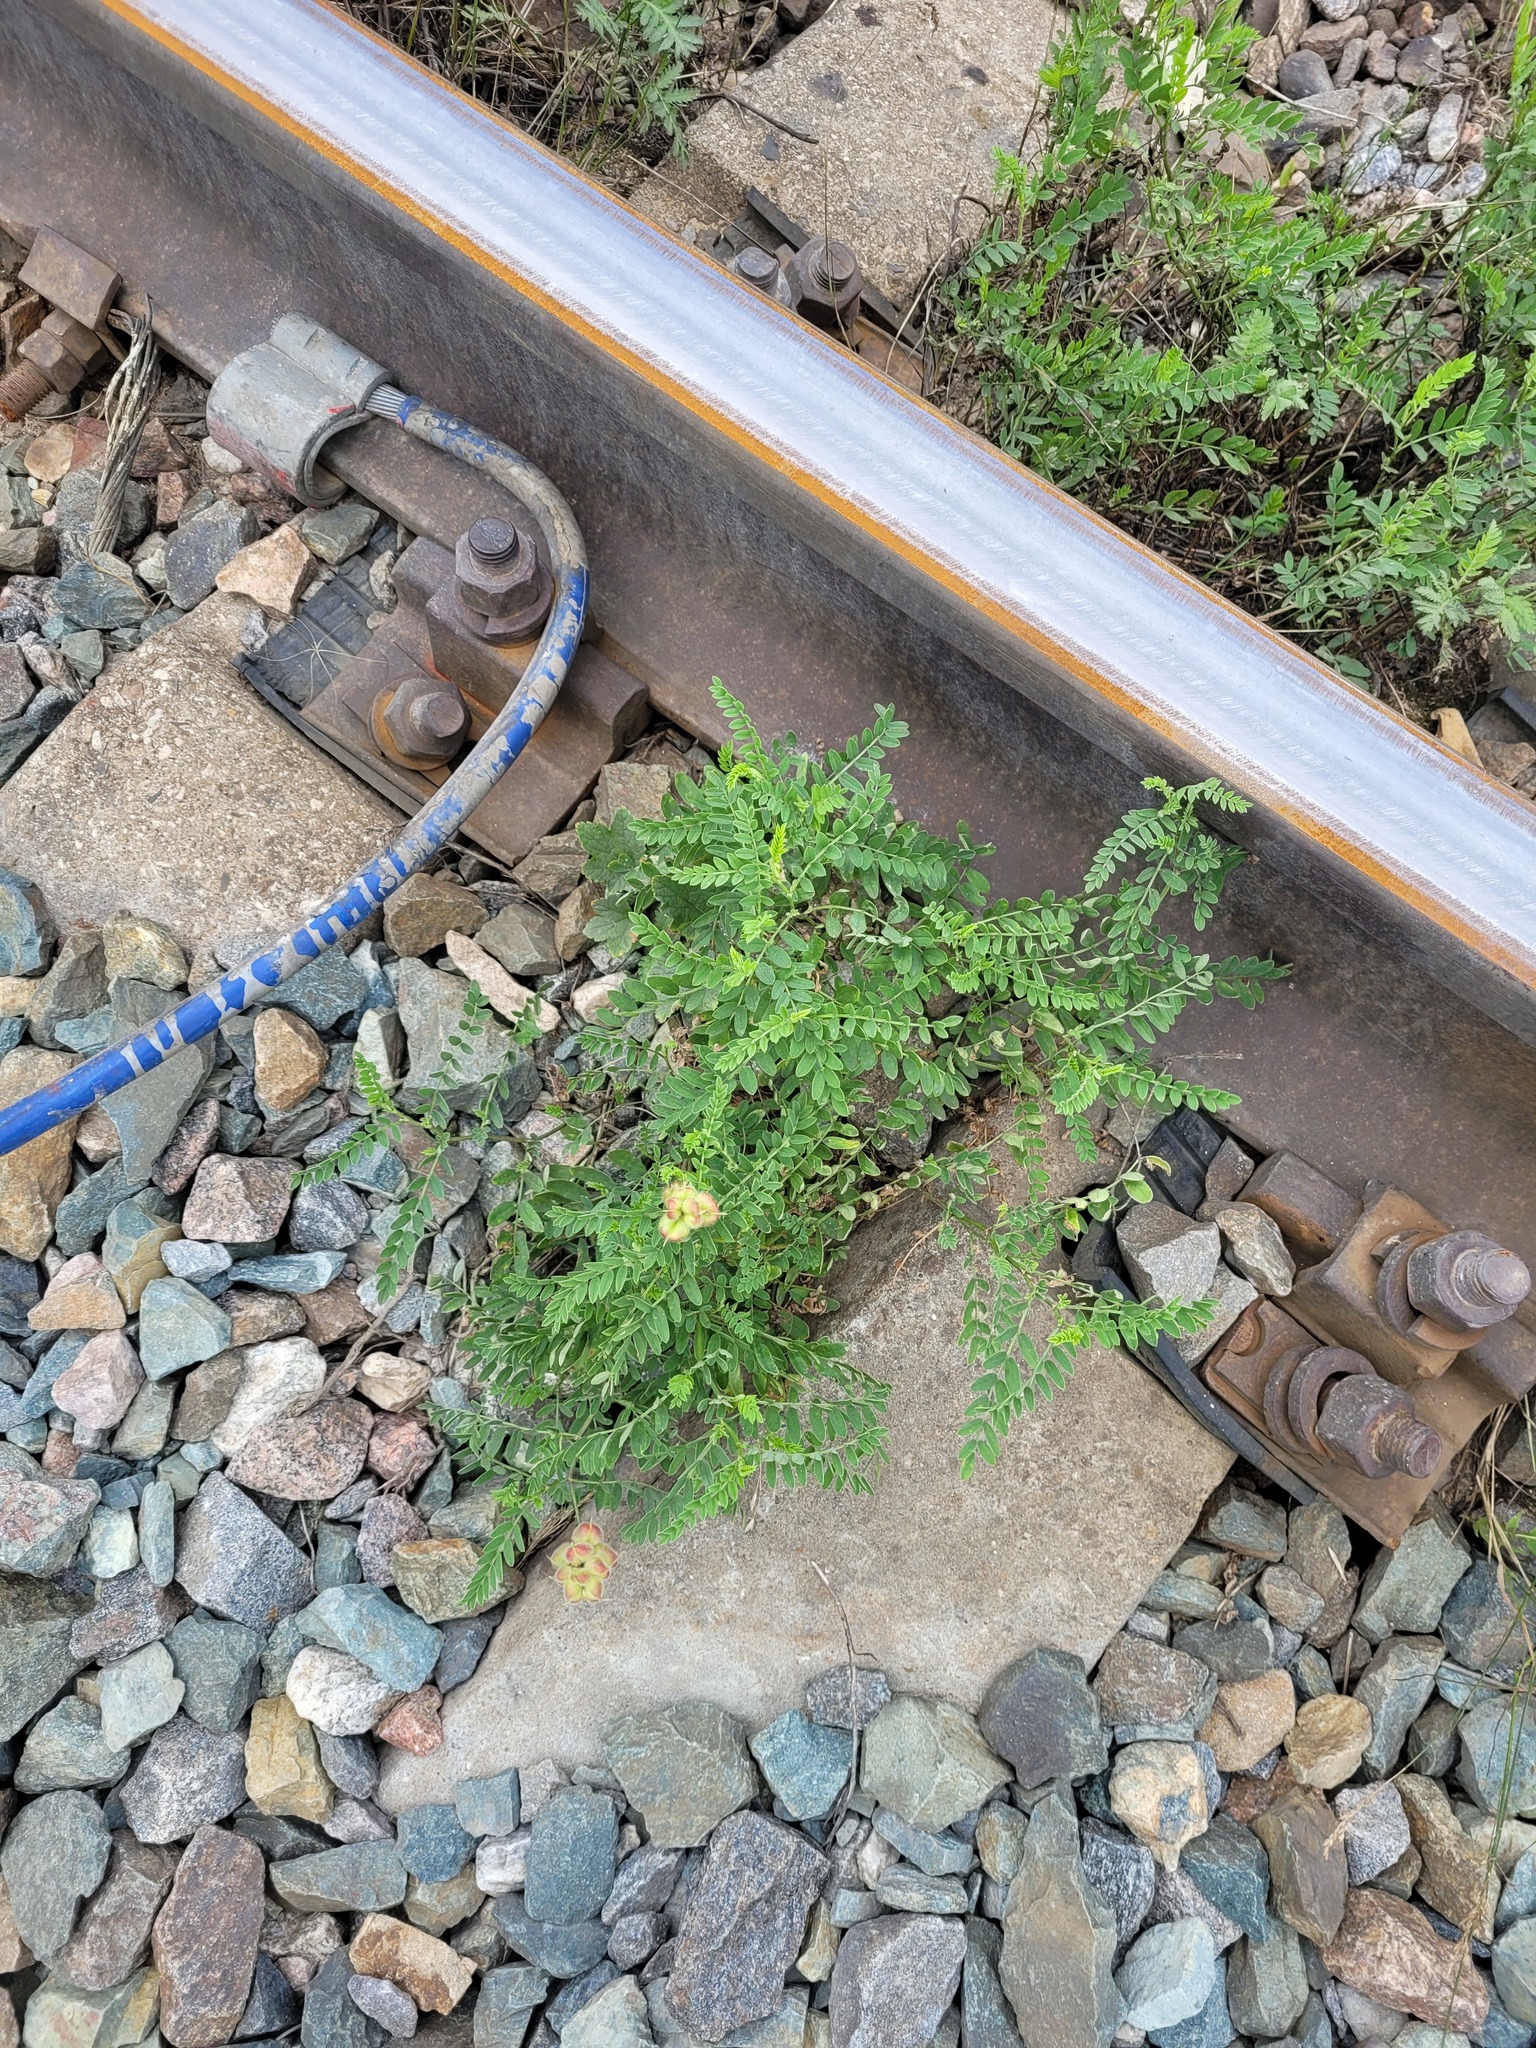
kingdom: Plantae
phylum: Tracheophyta
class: Magnoliopsida
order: Fabales
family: Fabaceae
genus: Astragalus
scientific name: Astragalus cicer
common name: Chick-pea milk-vetch
